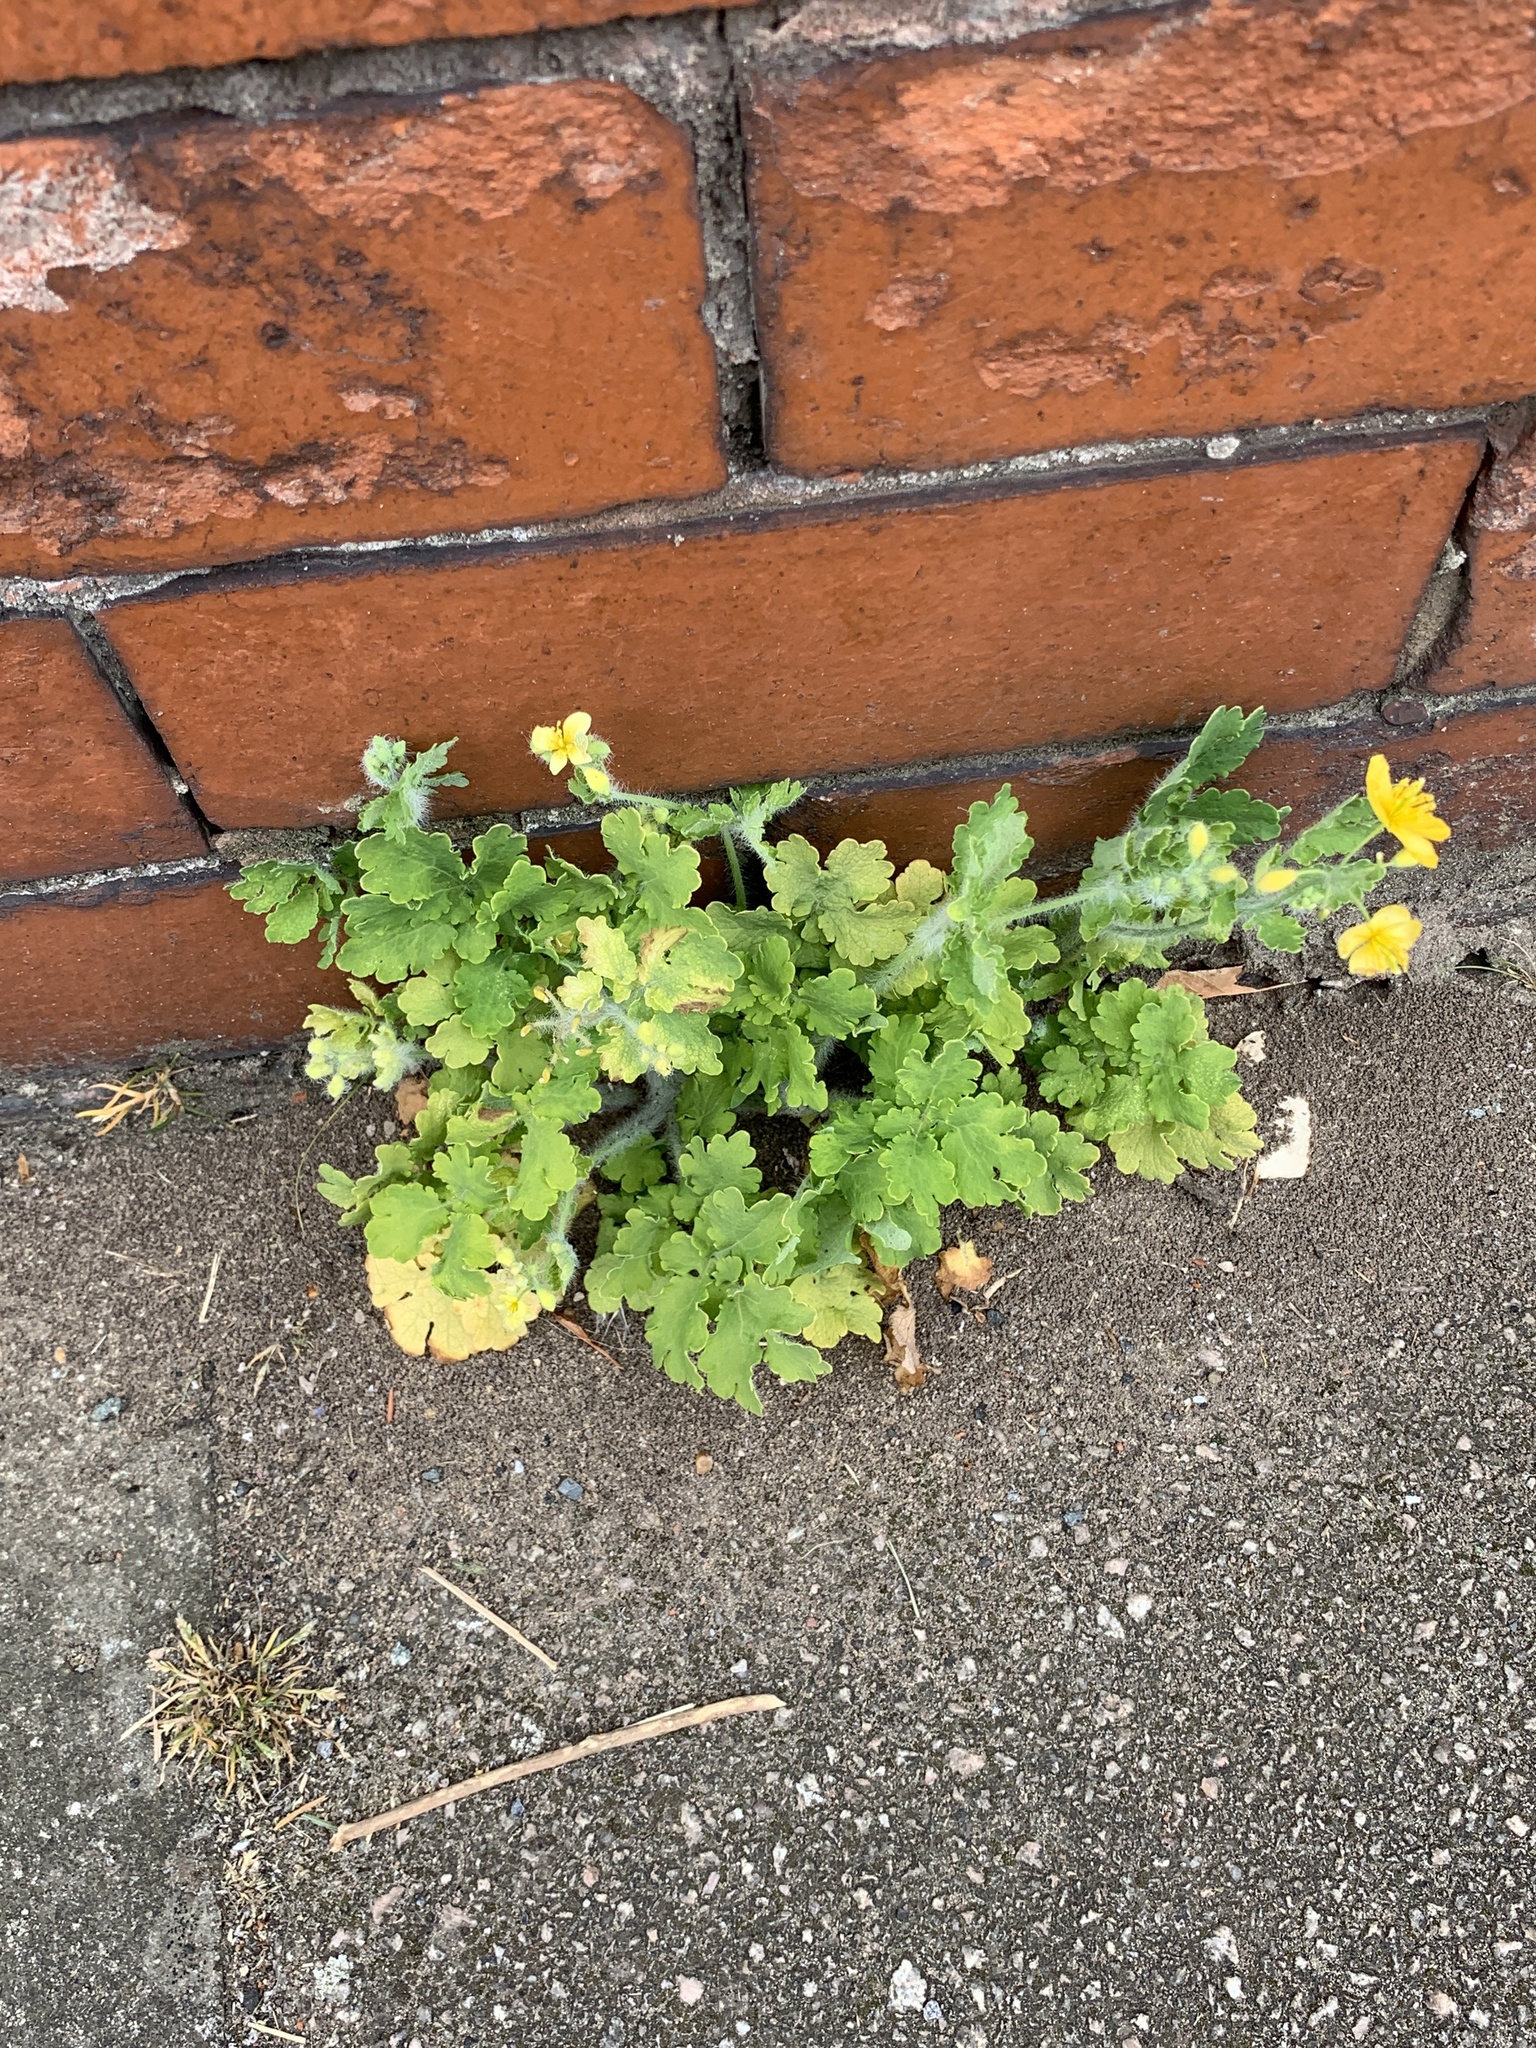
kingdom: Plantae
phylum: Tracheophyta
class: Magnoliopsida
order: Ranunculales
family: Papaveraceae
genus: Chelidonium
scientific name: Chelidonium majus
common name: Greater celandine
